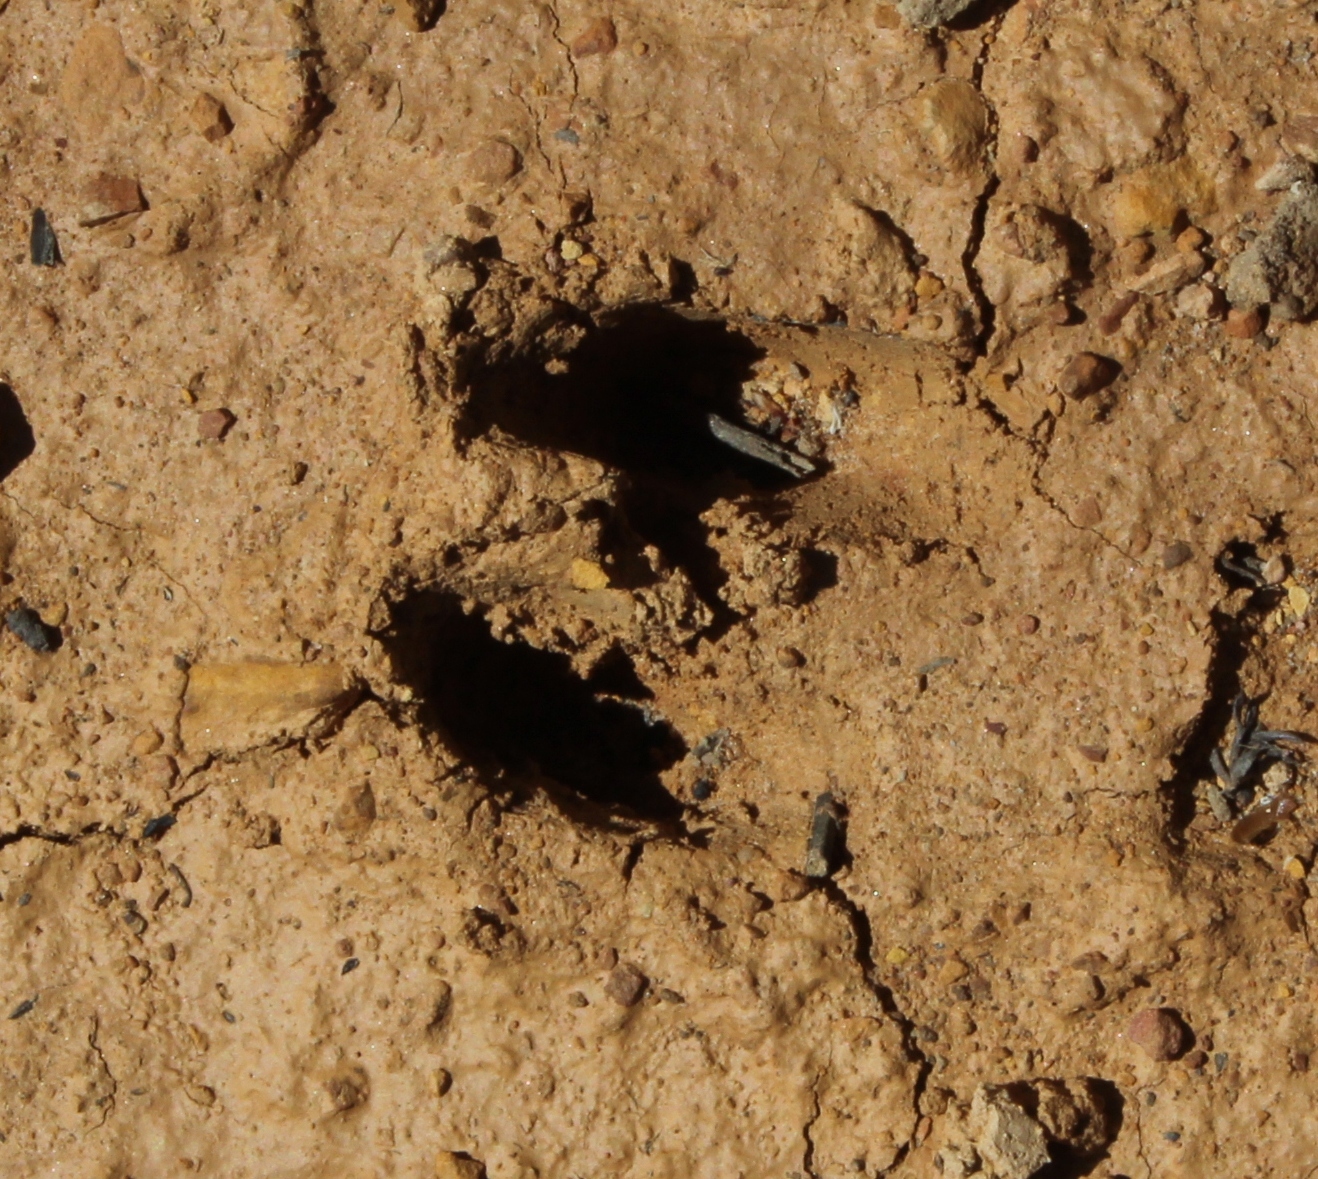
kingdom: Animalia
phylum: Chordata
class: Mammalia
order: Artiodactyla
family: Bovidae
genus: Oreotragus
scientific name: Oreotragus oreotragus
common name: Klipspringer
